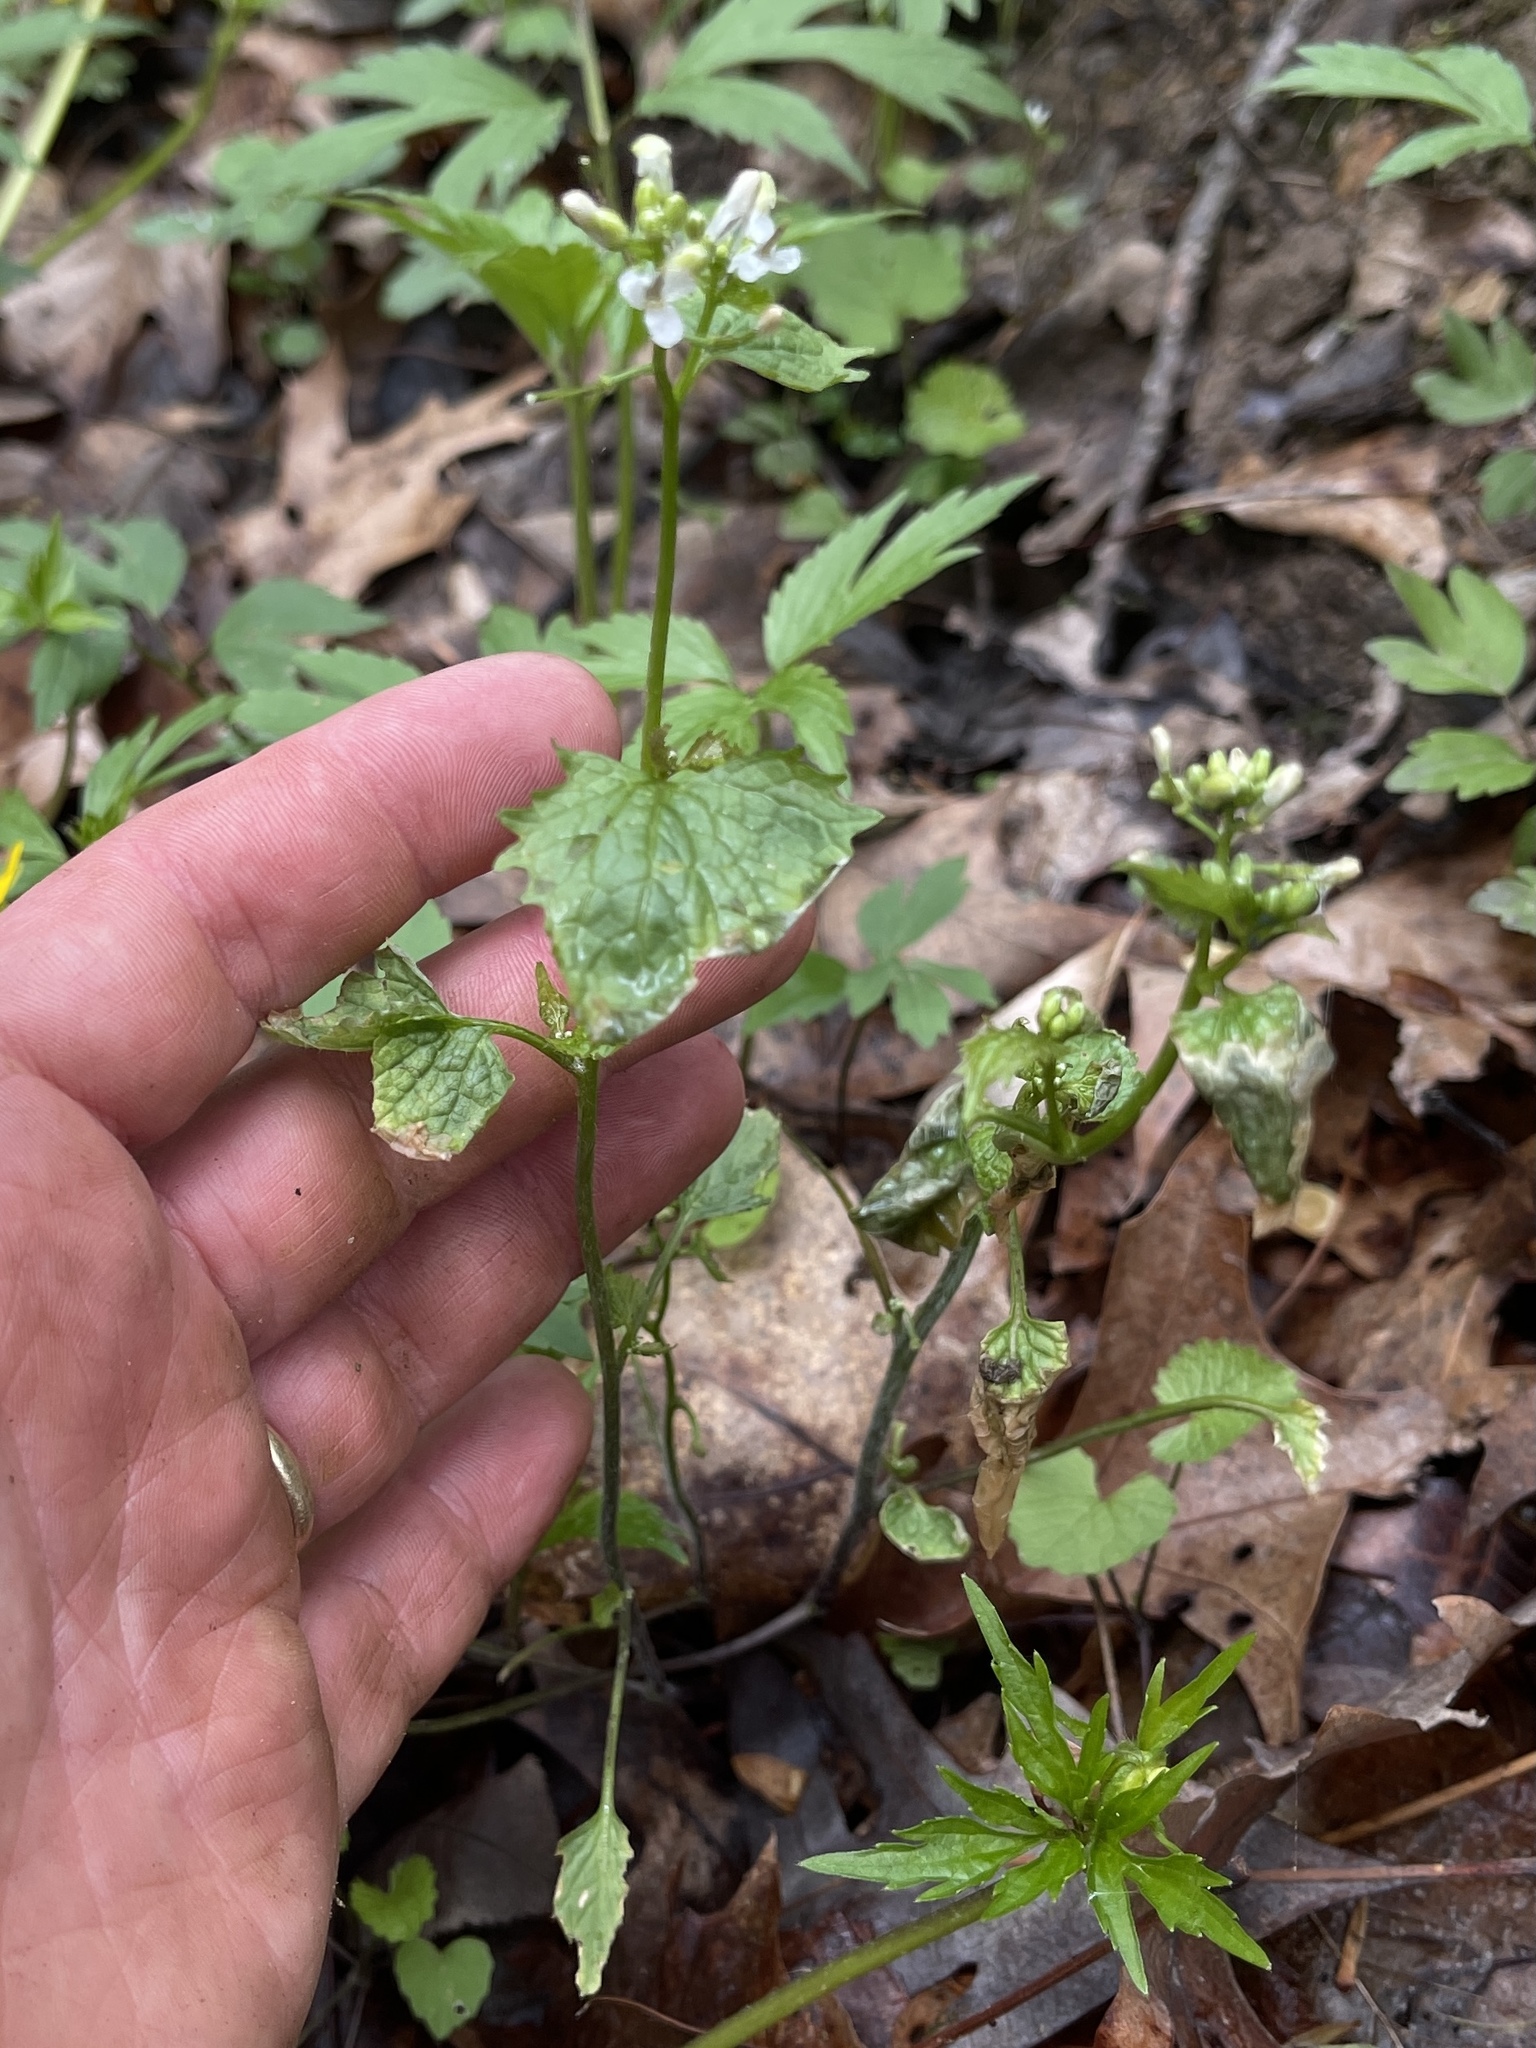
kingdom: Plantae
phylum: Tracheophyta
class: Magnoliopsida
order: Brassicales
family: Brassicaceae
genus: Alliaria
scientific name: Alliaria petiolata
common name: Garlic mustard
